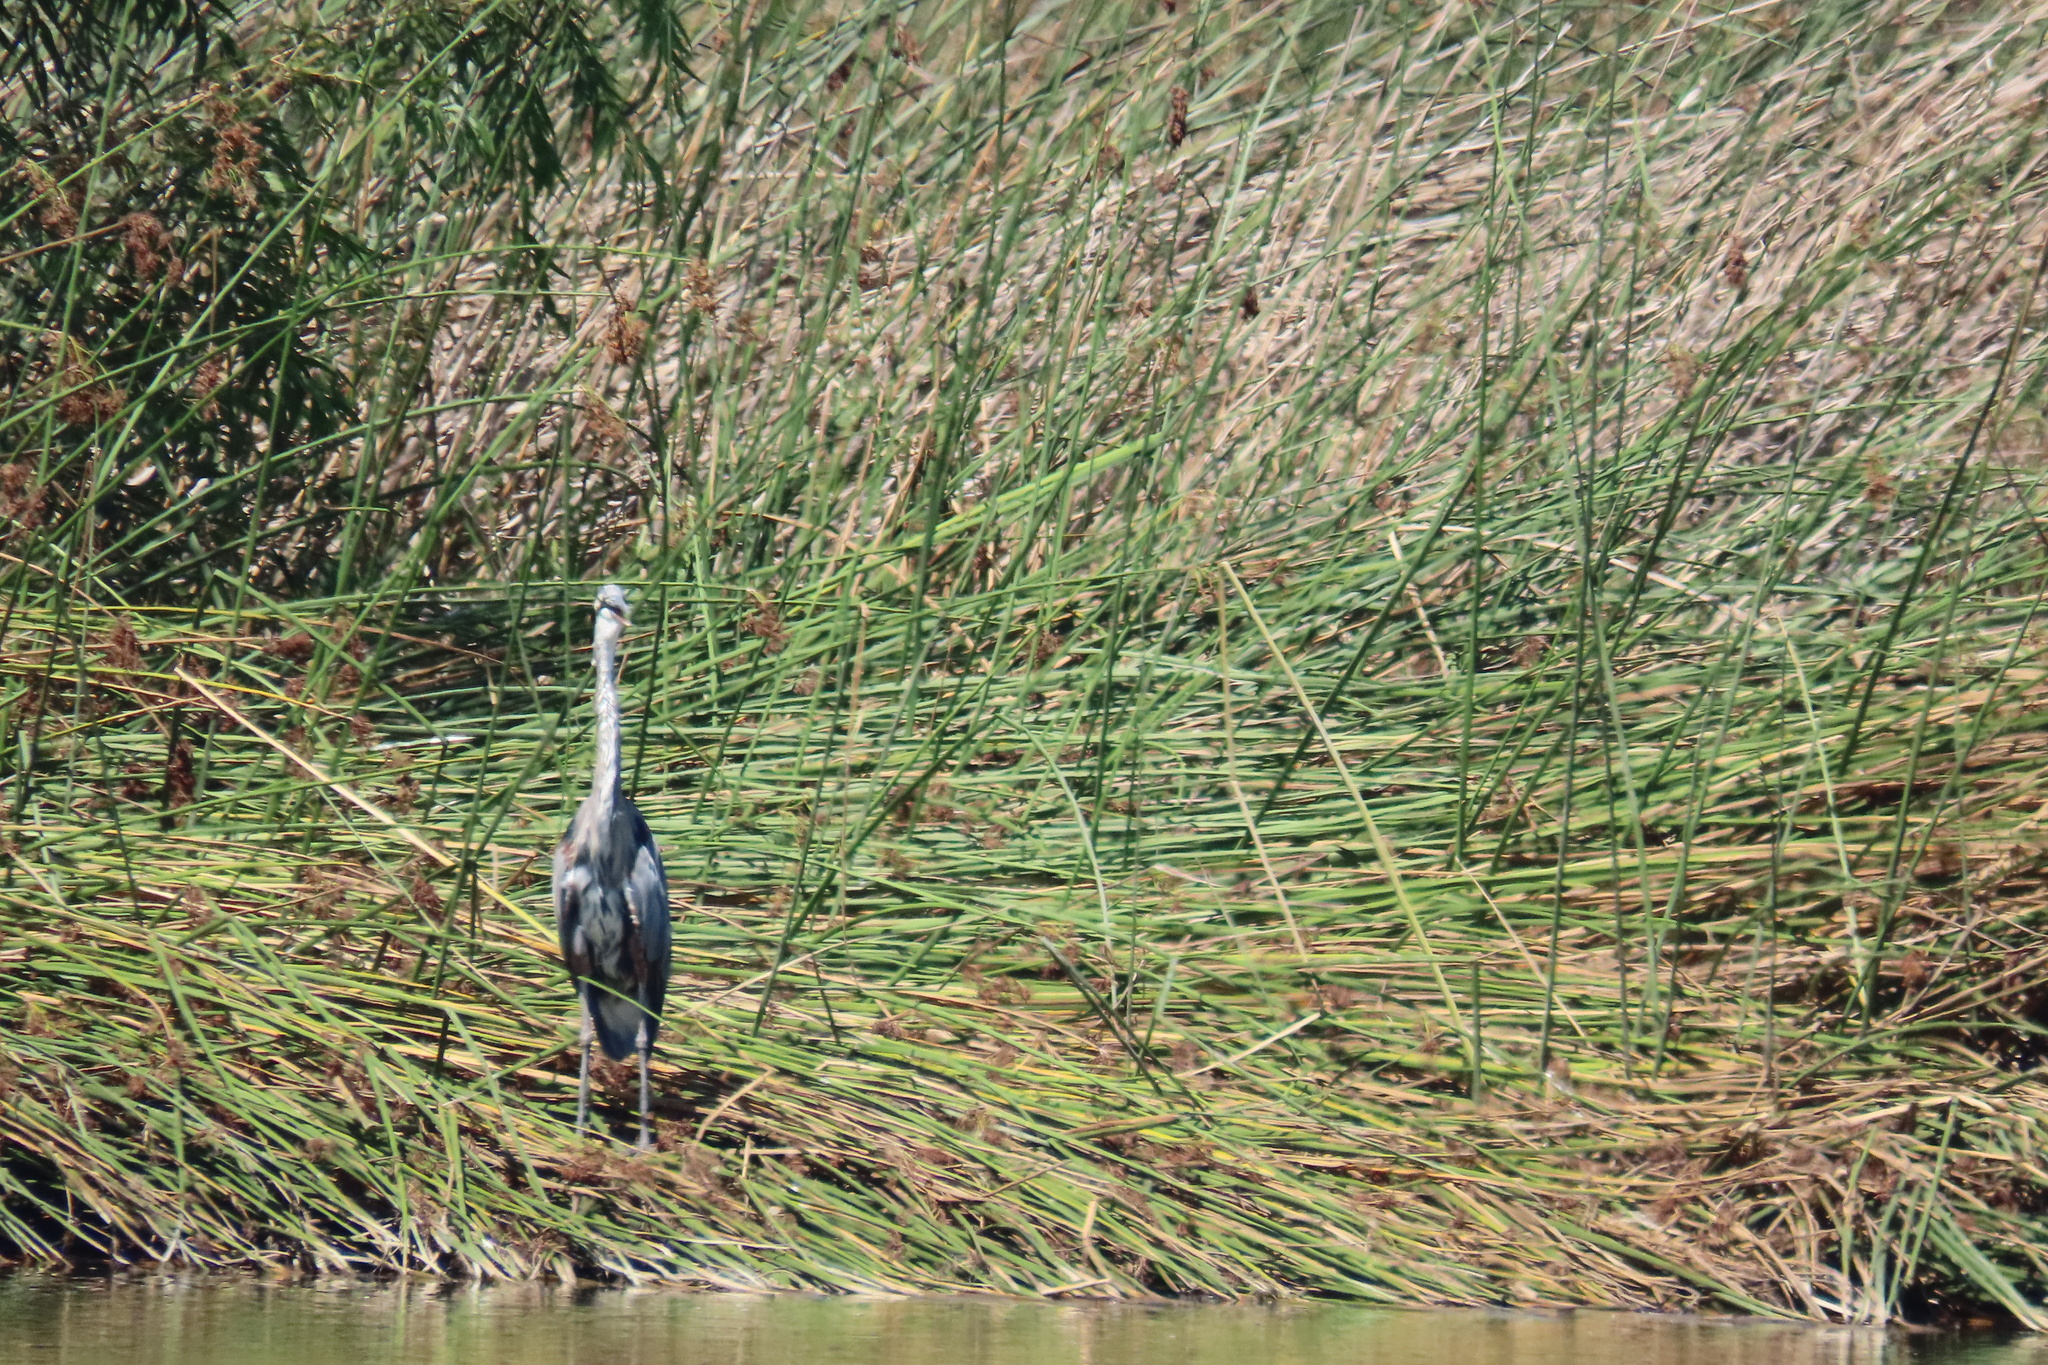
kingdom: Animalia
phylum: Chordata
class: Aves
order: Pelecaniformes
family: Ardeidae
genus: Ardea
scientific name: Ardea herodias
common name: Great blue heron
